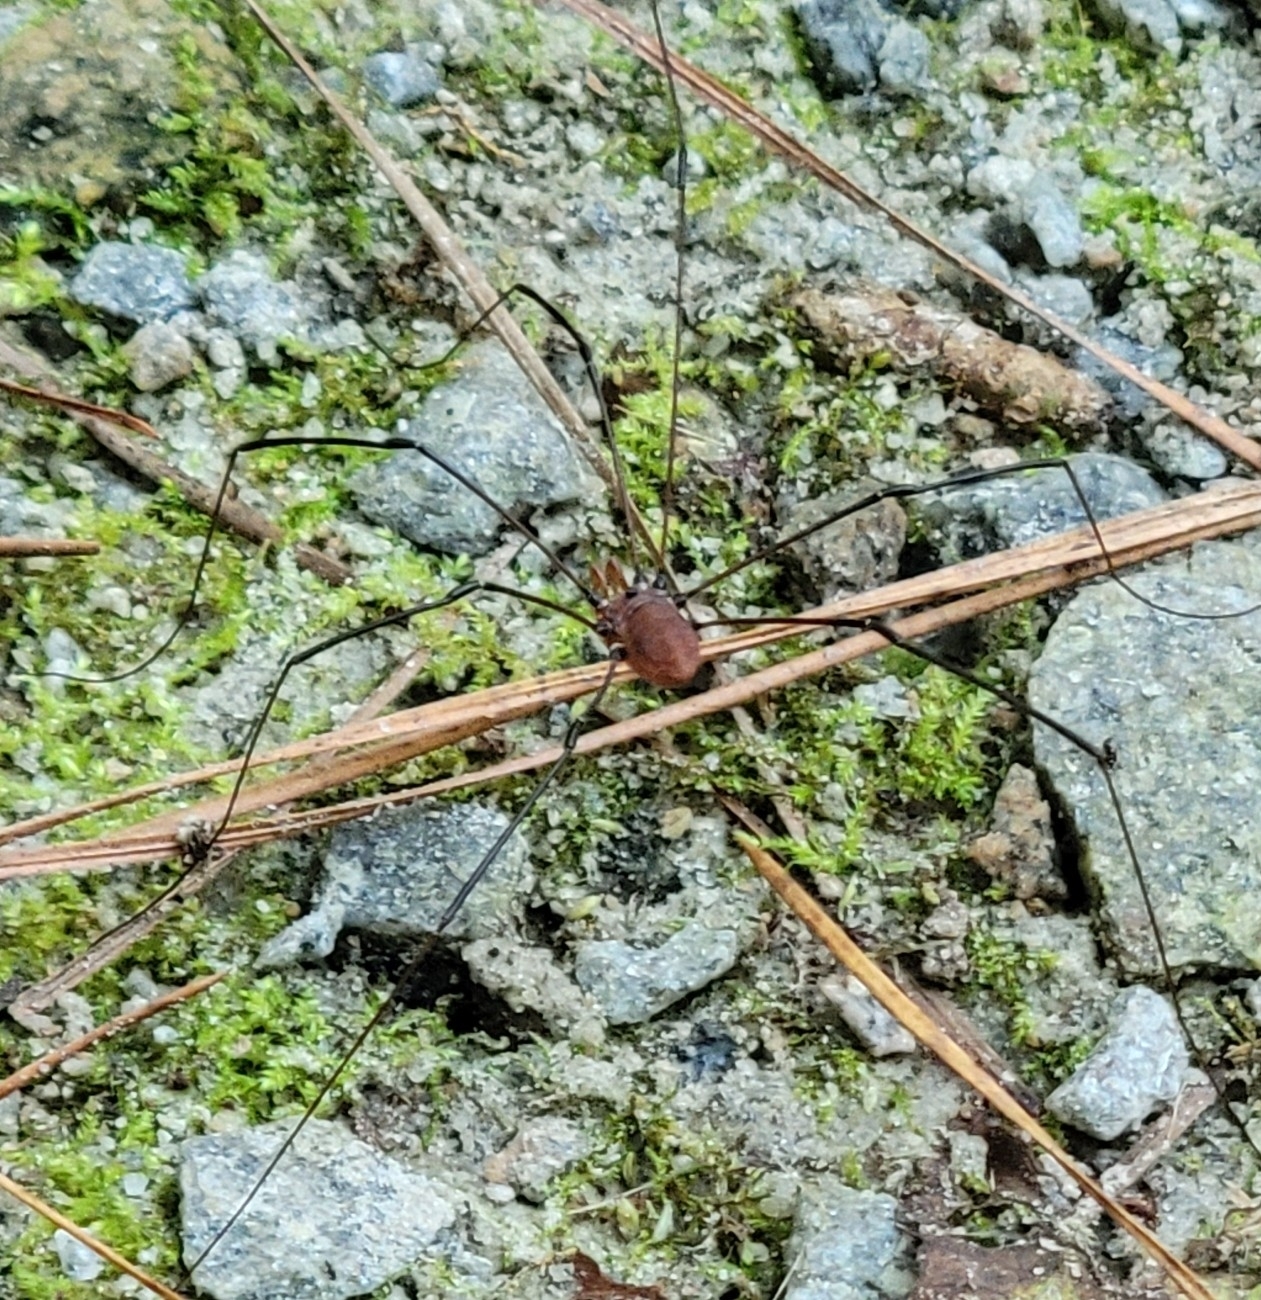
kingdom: Animalia
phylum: Arthropoda
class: Arachnida
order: Opiliones
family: Sclerosomatidae
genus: Leiobunum
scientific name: Leiobunum vittatum
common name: Eastern harvestman
